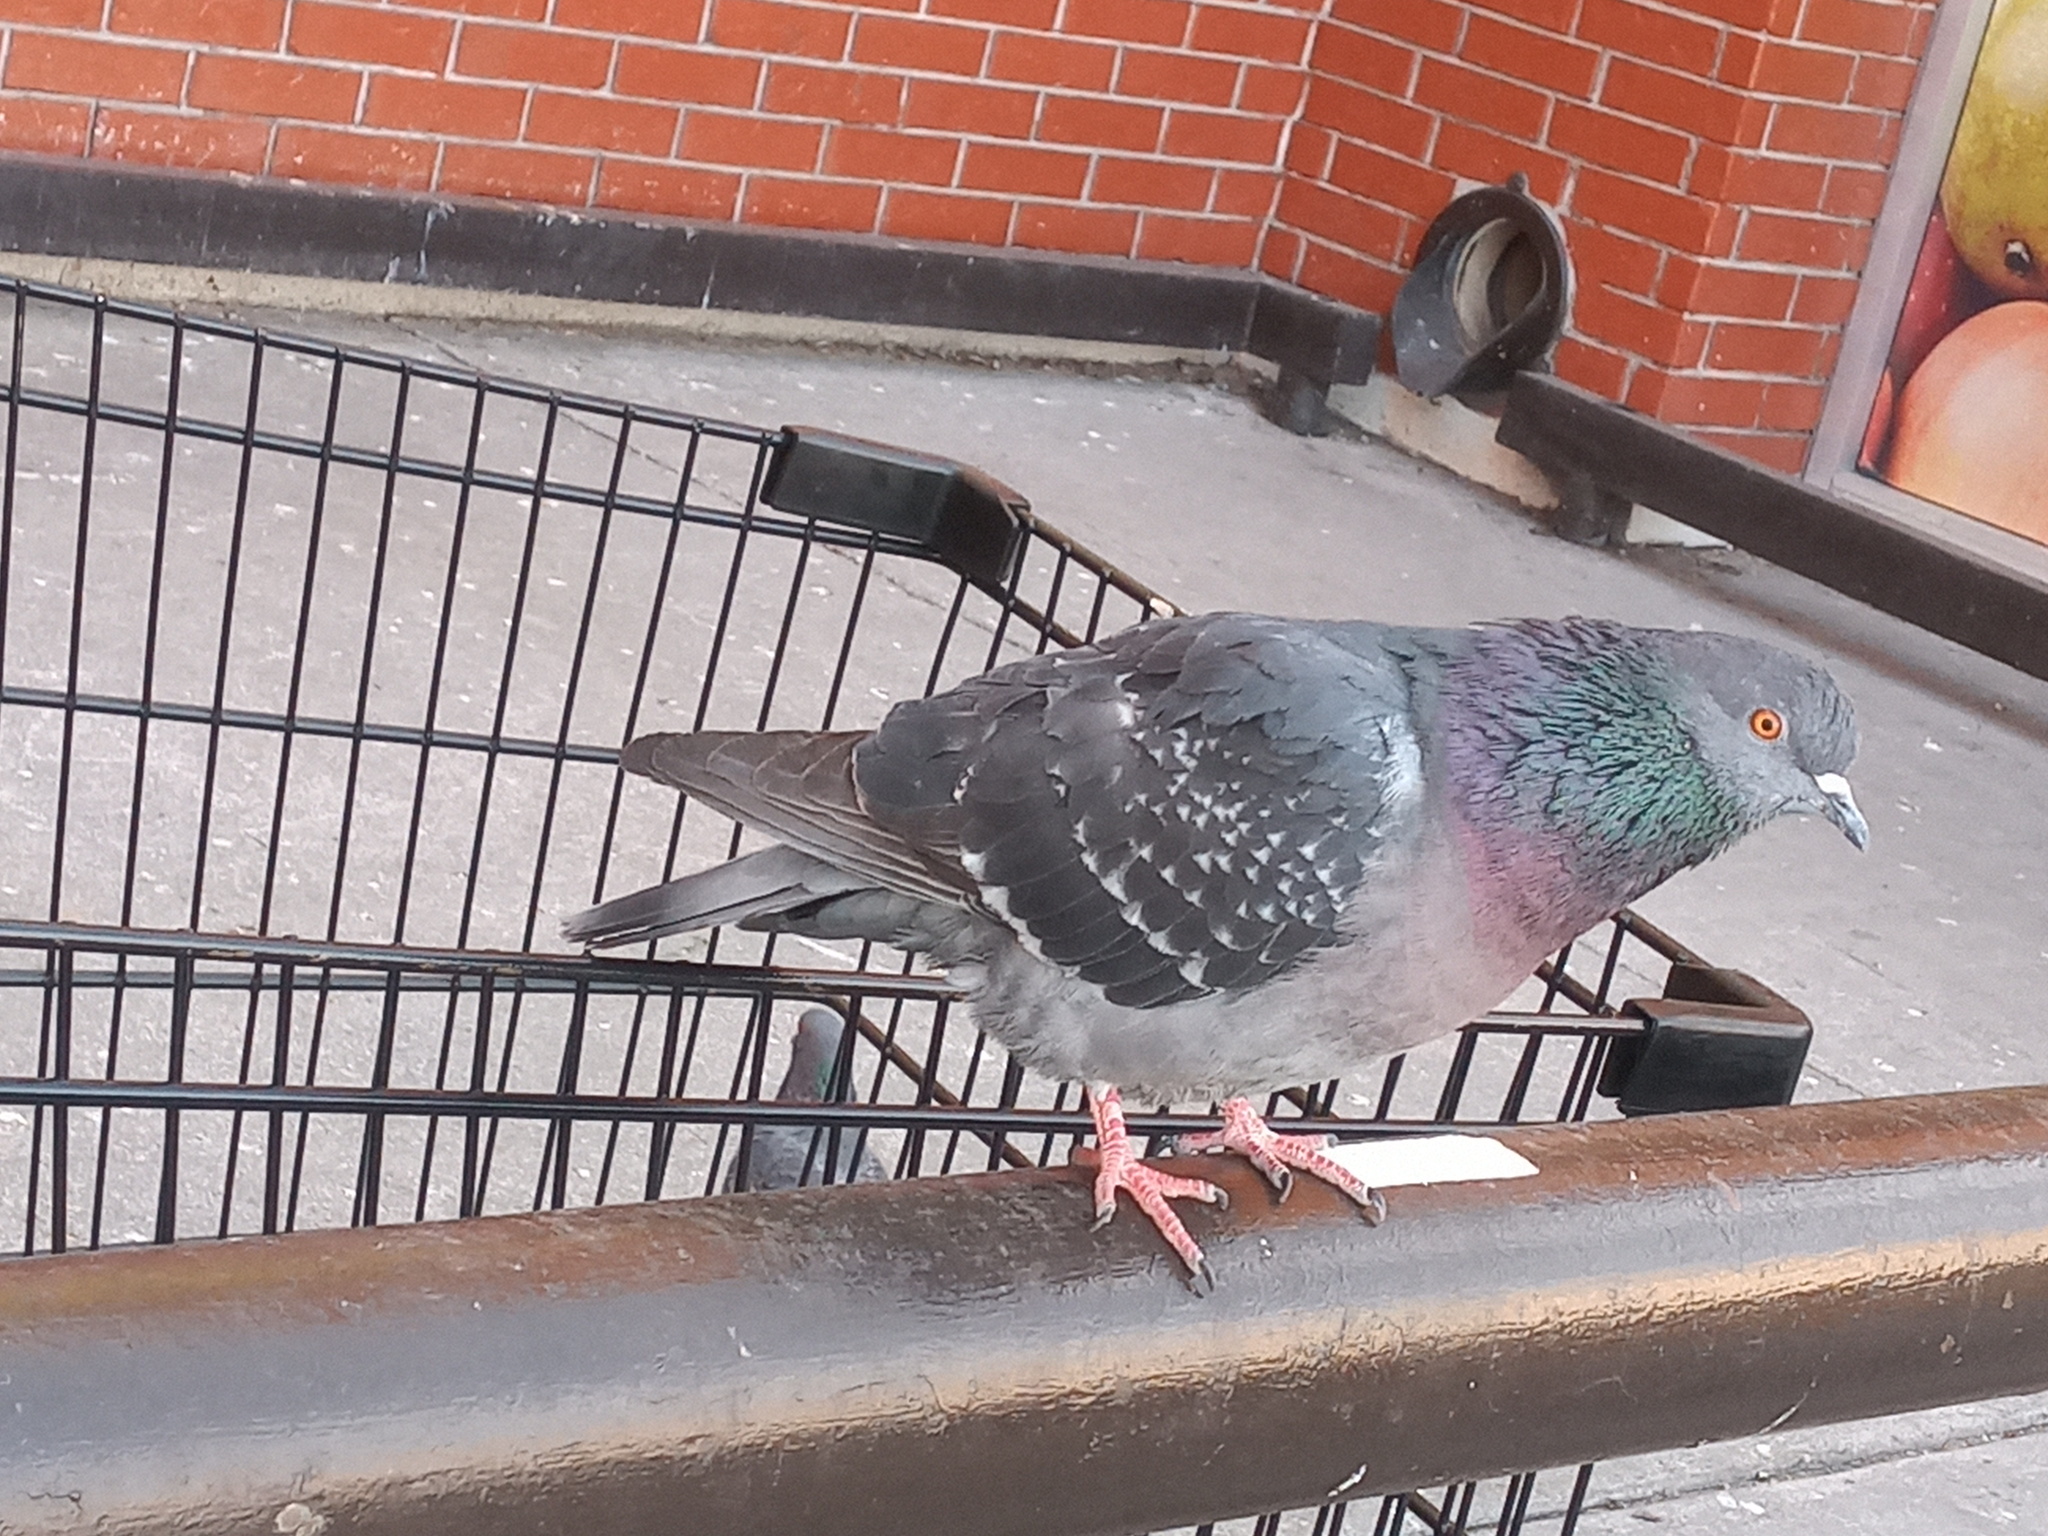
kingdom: Animalia
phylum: Chordata
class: Aves
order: Columbiformes
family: Columbidae
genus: Columba
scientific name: Columba livia
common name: Rock pigeon
